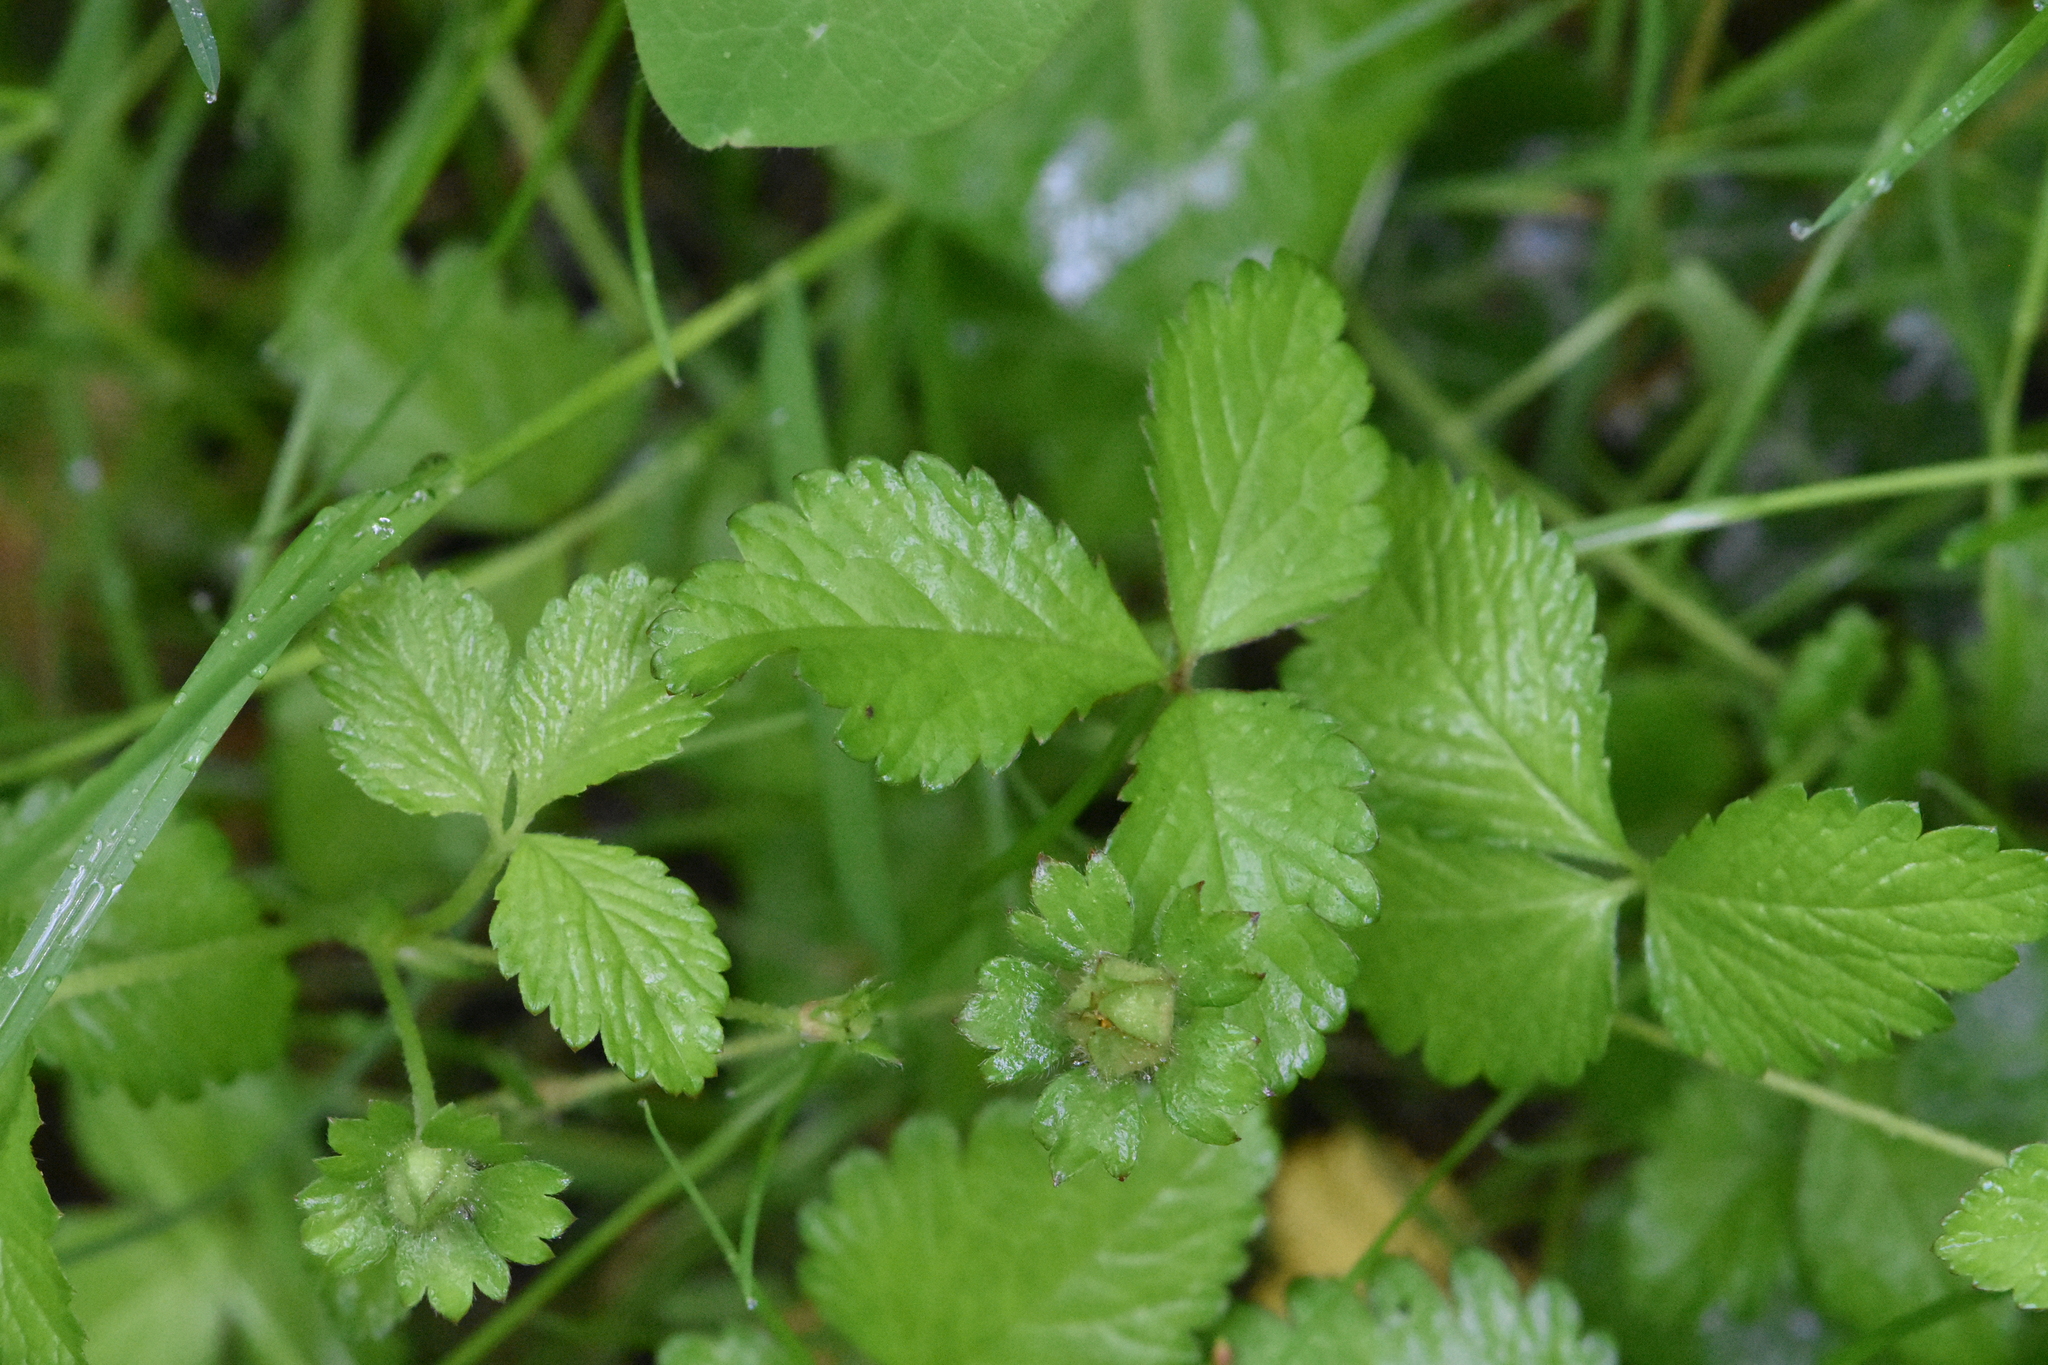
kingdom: Plantae
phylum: Tracheophyta
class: Magnoliopsida
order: Rosales
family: Rosaceae
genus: Potentilla
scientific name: Potentilla indica
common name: Yellow-flowered strawberry
